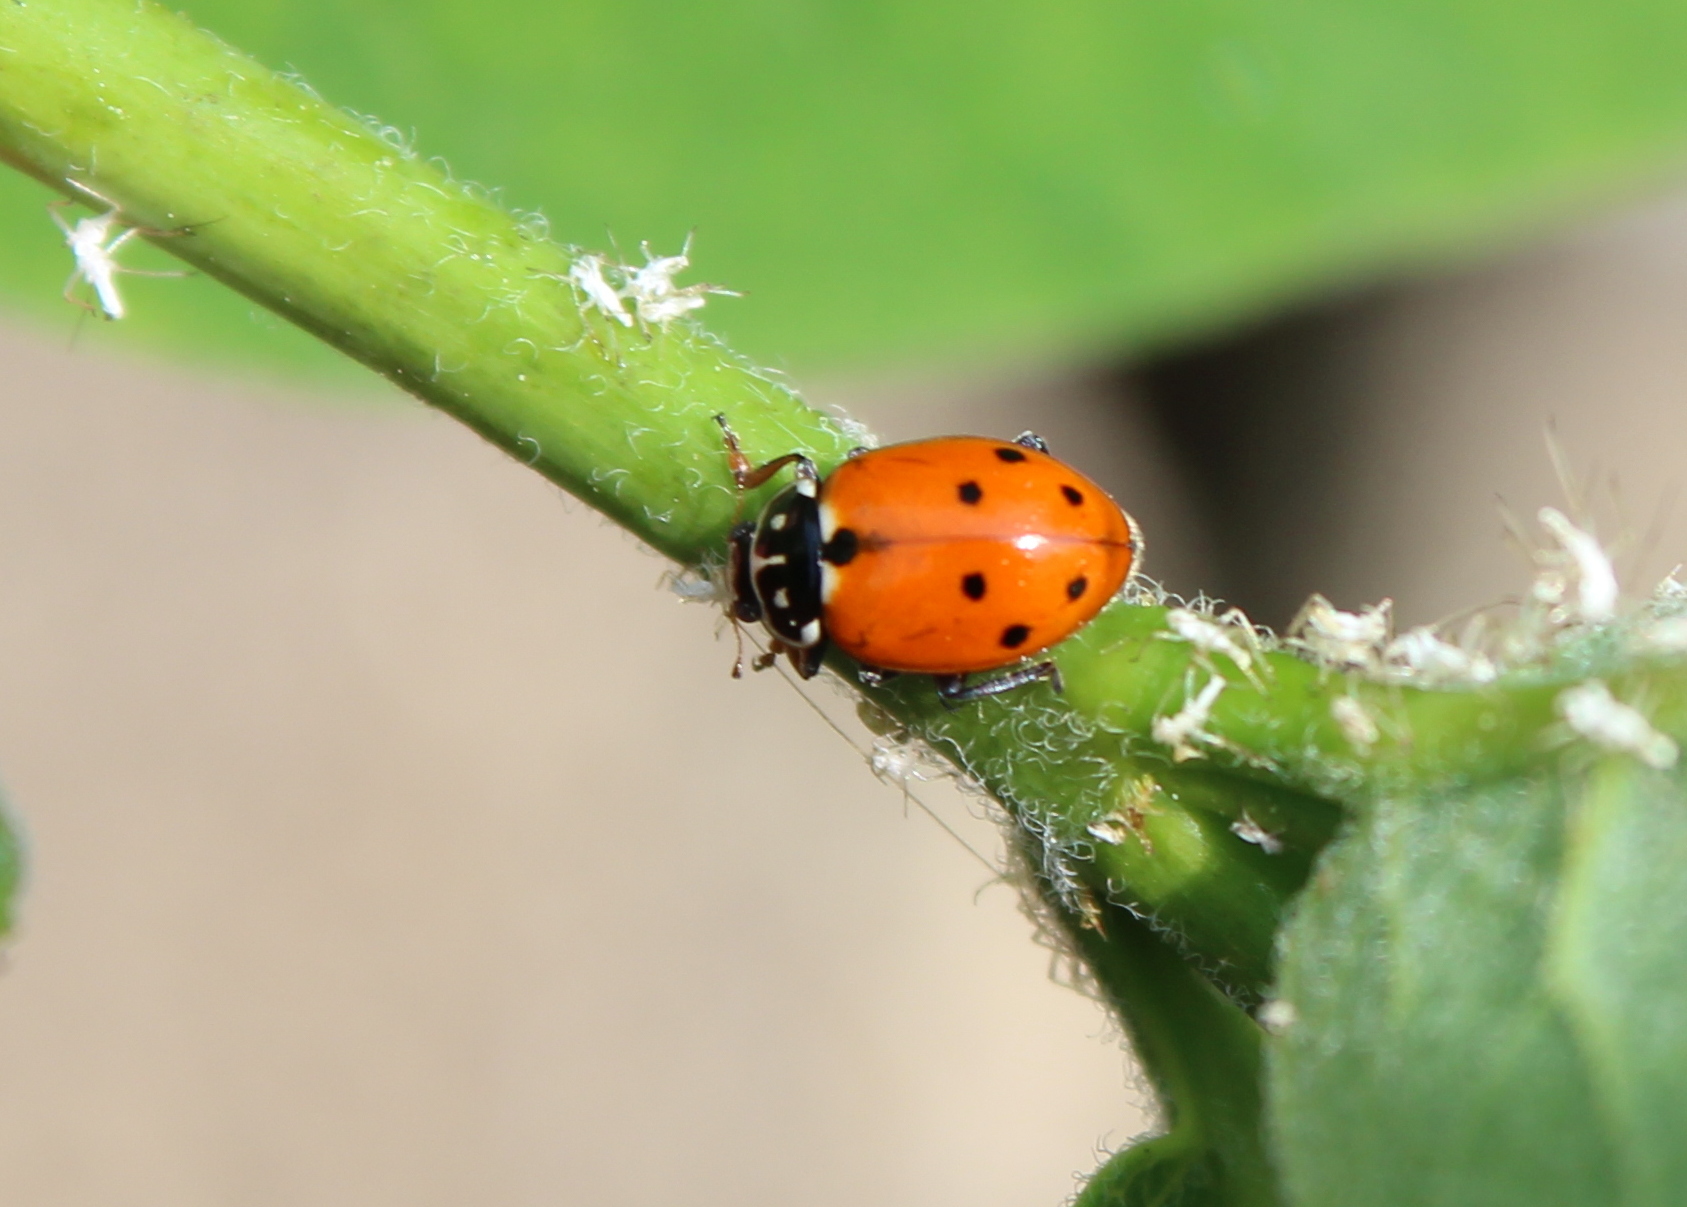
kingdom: Animalia
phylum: Arthropoda
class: Insecta
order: Coleoptera
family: Coccinellidae
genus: Hippodamia
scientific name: Hippodamia variegata
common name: Ladybird beetle
